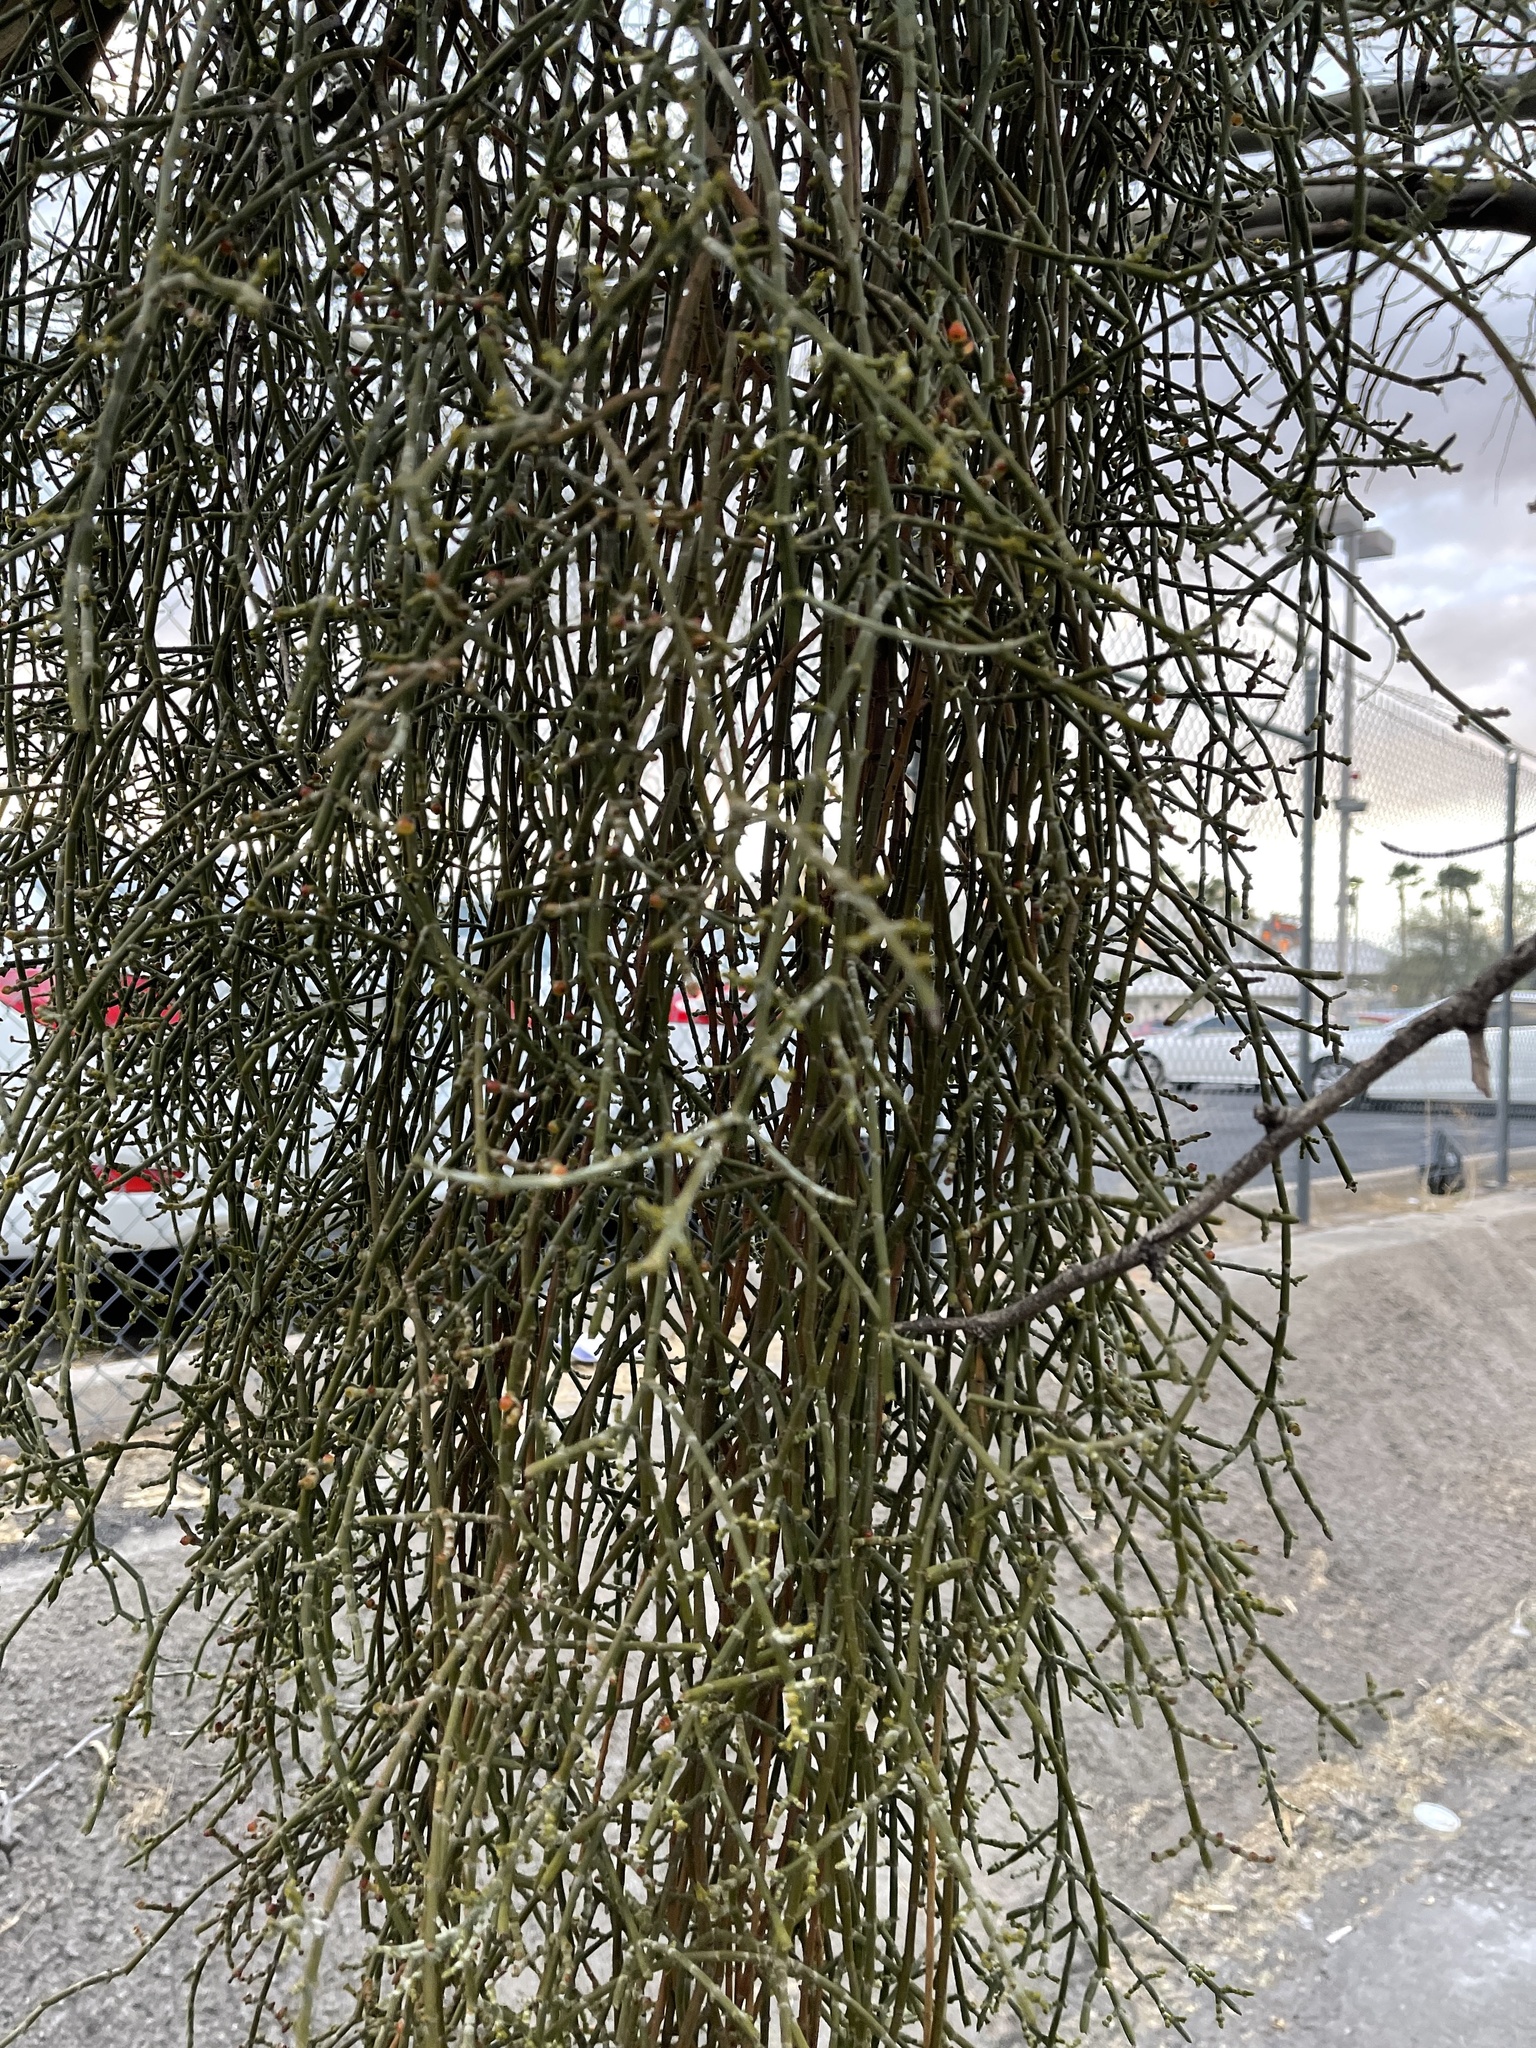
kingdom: Plantae
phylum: Tracheophyta
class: Magnoliopsida
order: Santalales
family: Viscaceae
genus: Phoradendron
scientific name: Phoradendron californicum
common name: Acacia mistletoe
